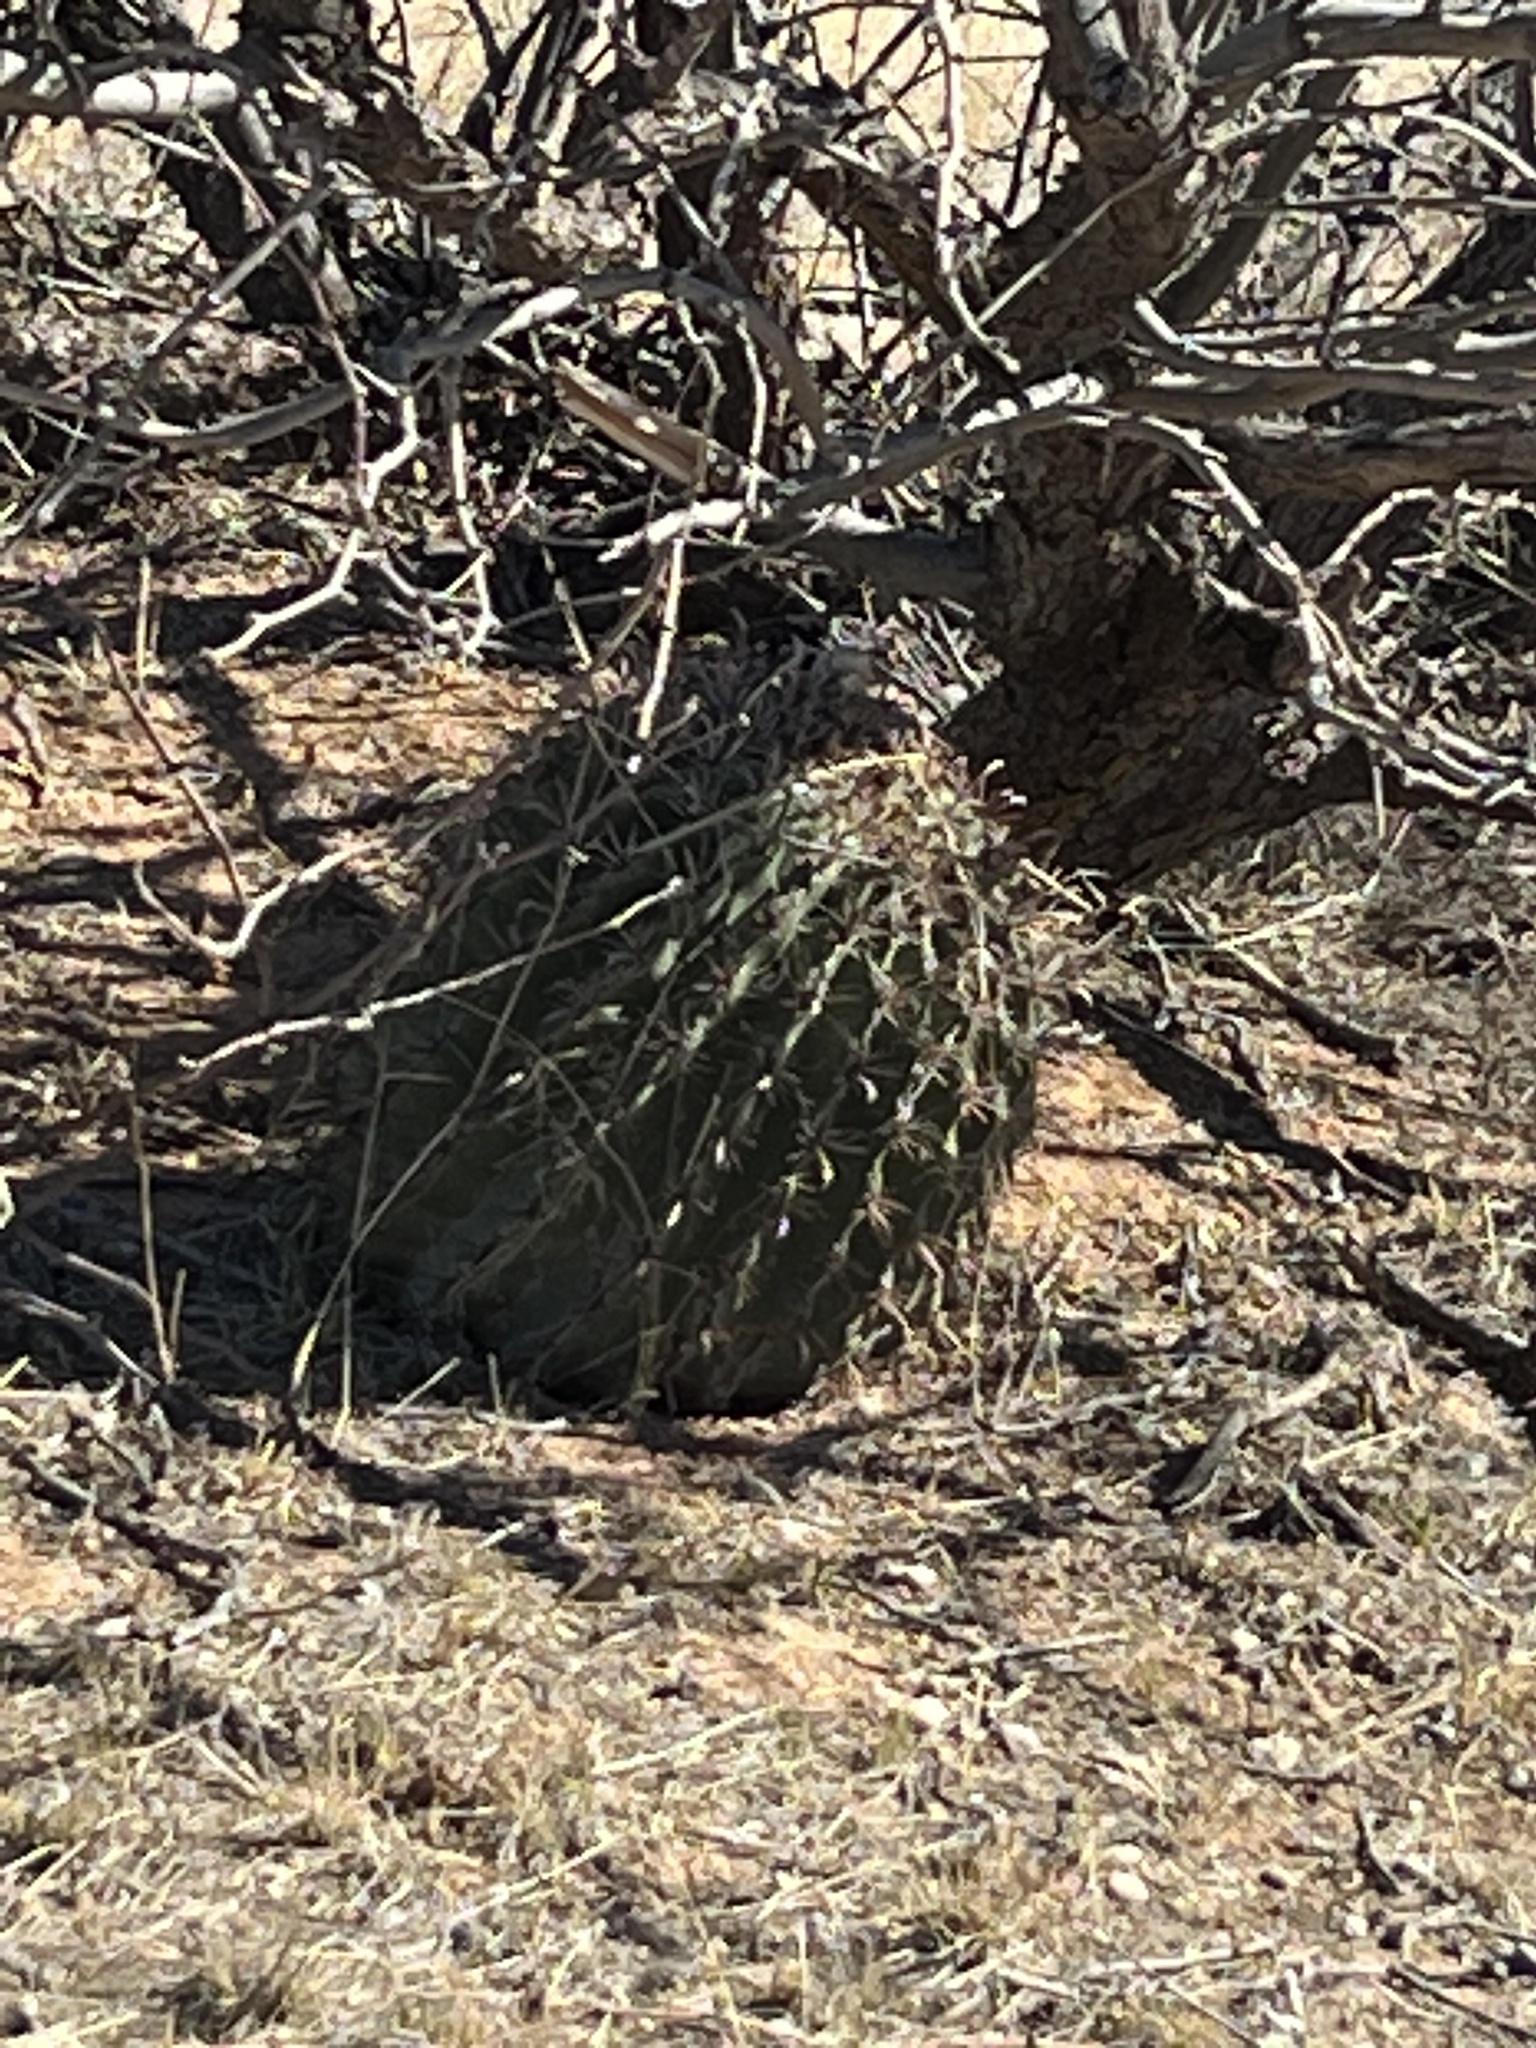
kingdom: Plantae
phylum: Tracheophyta
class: Magnoliopsida
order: Caryophyllales
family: Cactaceae
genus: Ferocactus
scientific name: Ferocactus wislizeni
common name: Candy barrel cactus
